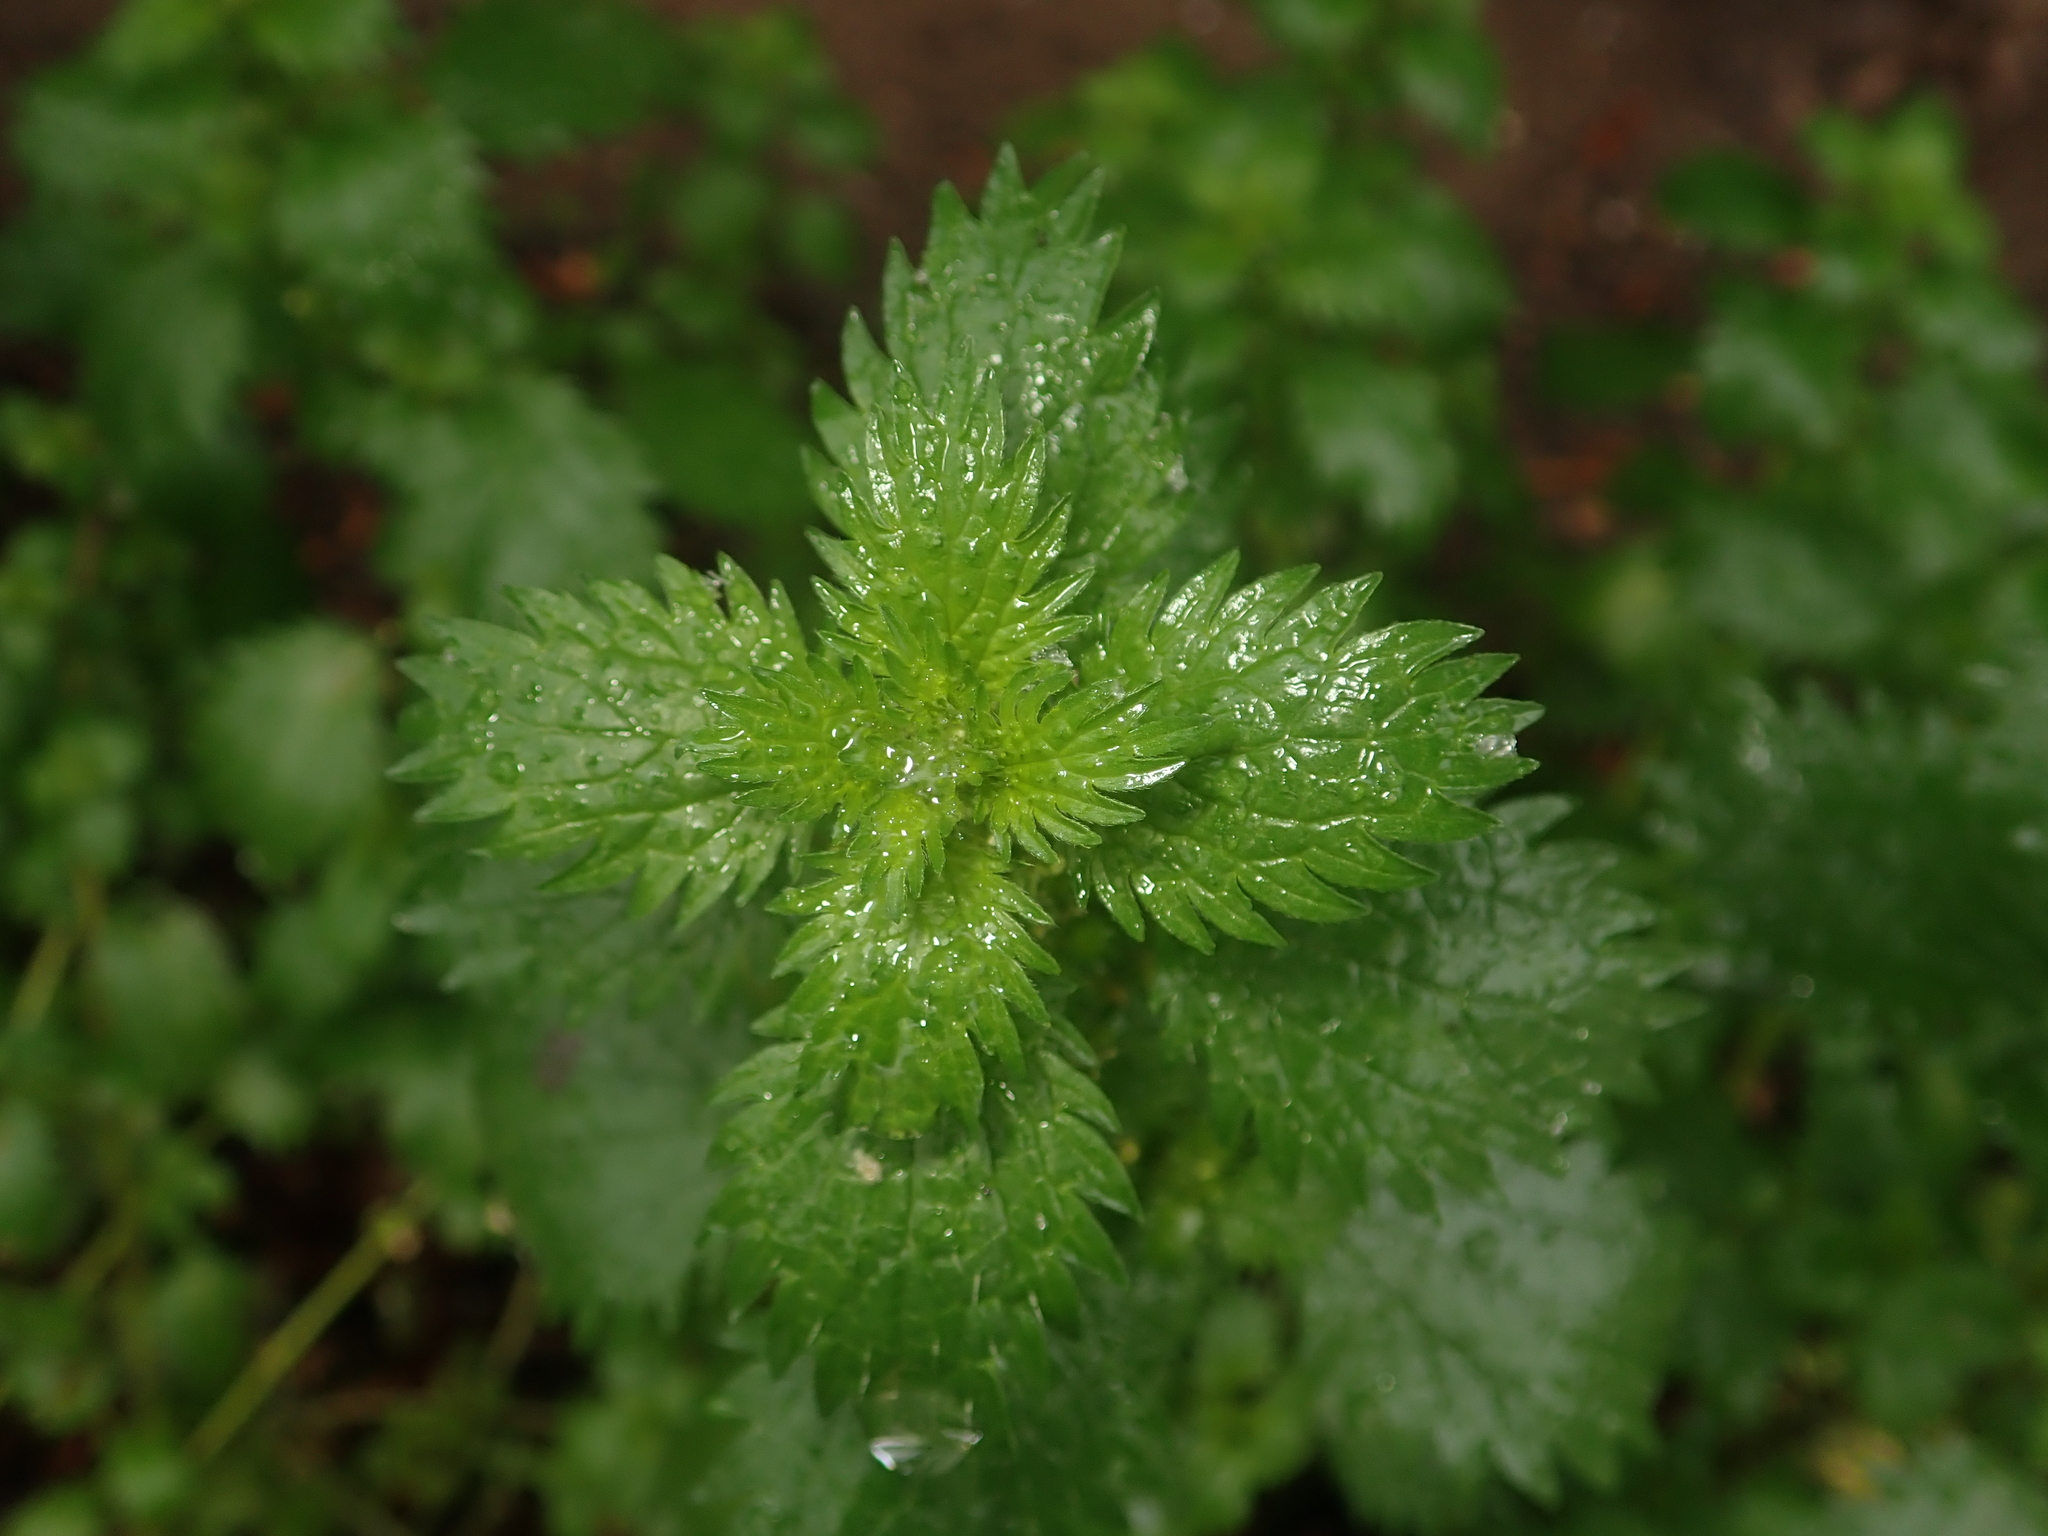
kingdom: Plantae
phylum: Tracheophyta
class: Magnoliopsida
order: Rosales
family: Urticaceae
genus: Urtica
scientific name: Urtica urens
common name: Dwarf nettle
